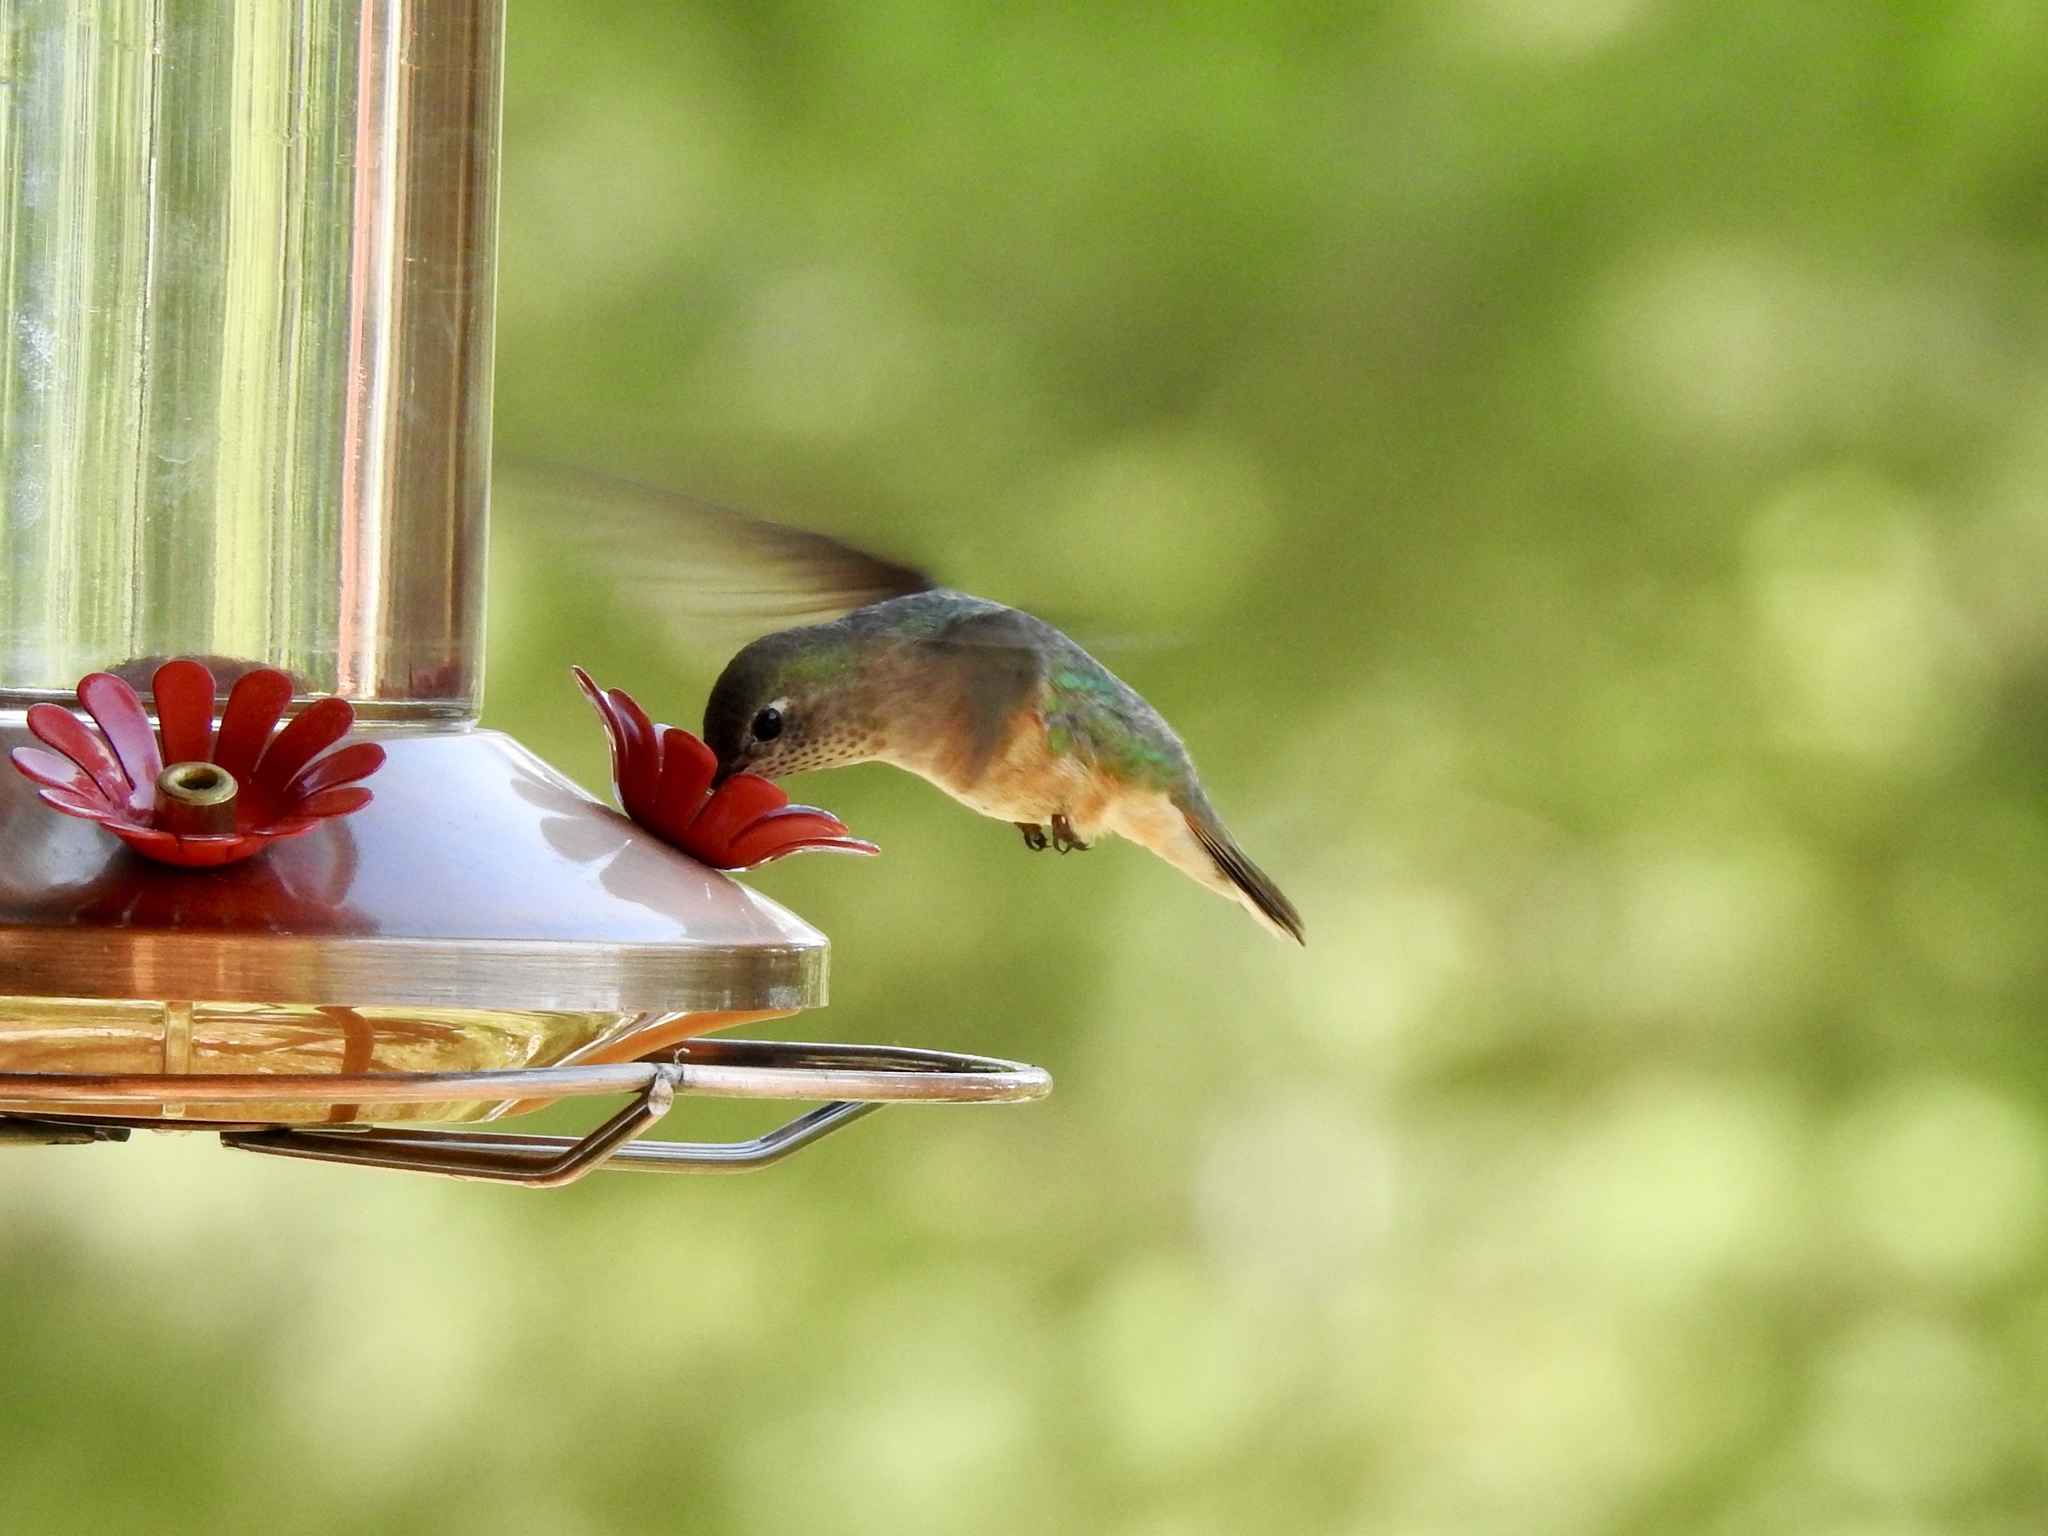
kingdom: Animalia
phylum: Chordata
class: Aves
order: Apodiformes
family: Trochilidae
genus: Selasphorus
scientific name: Selasphorus platycercus
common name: Broad-tailed hummingbird
